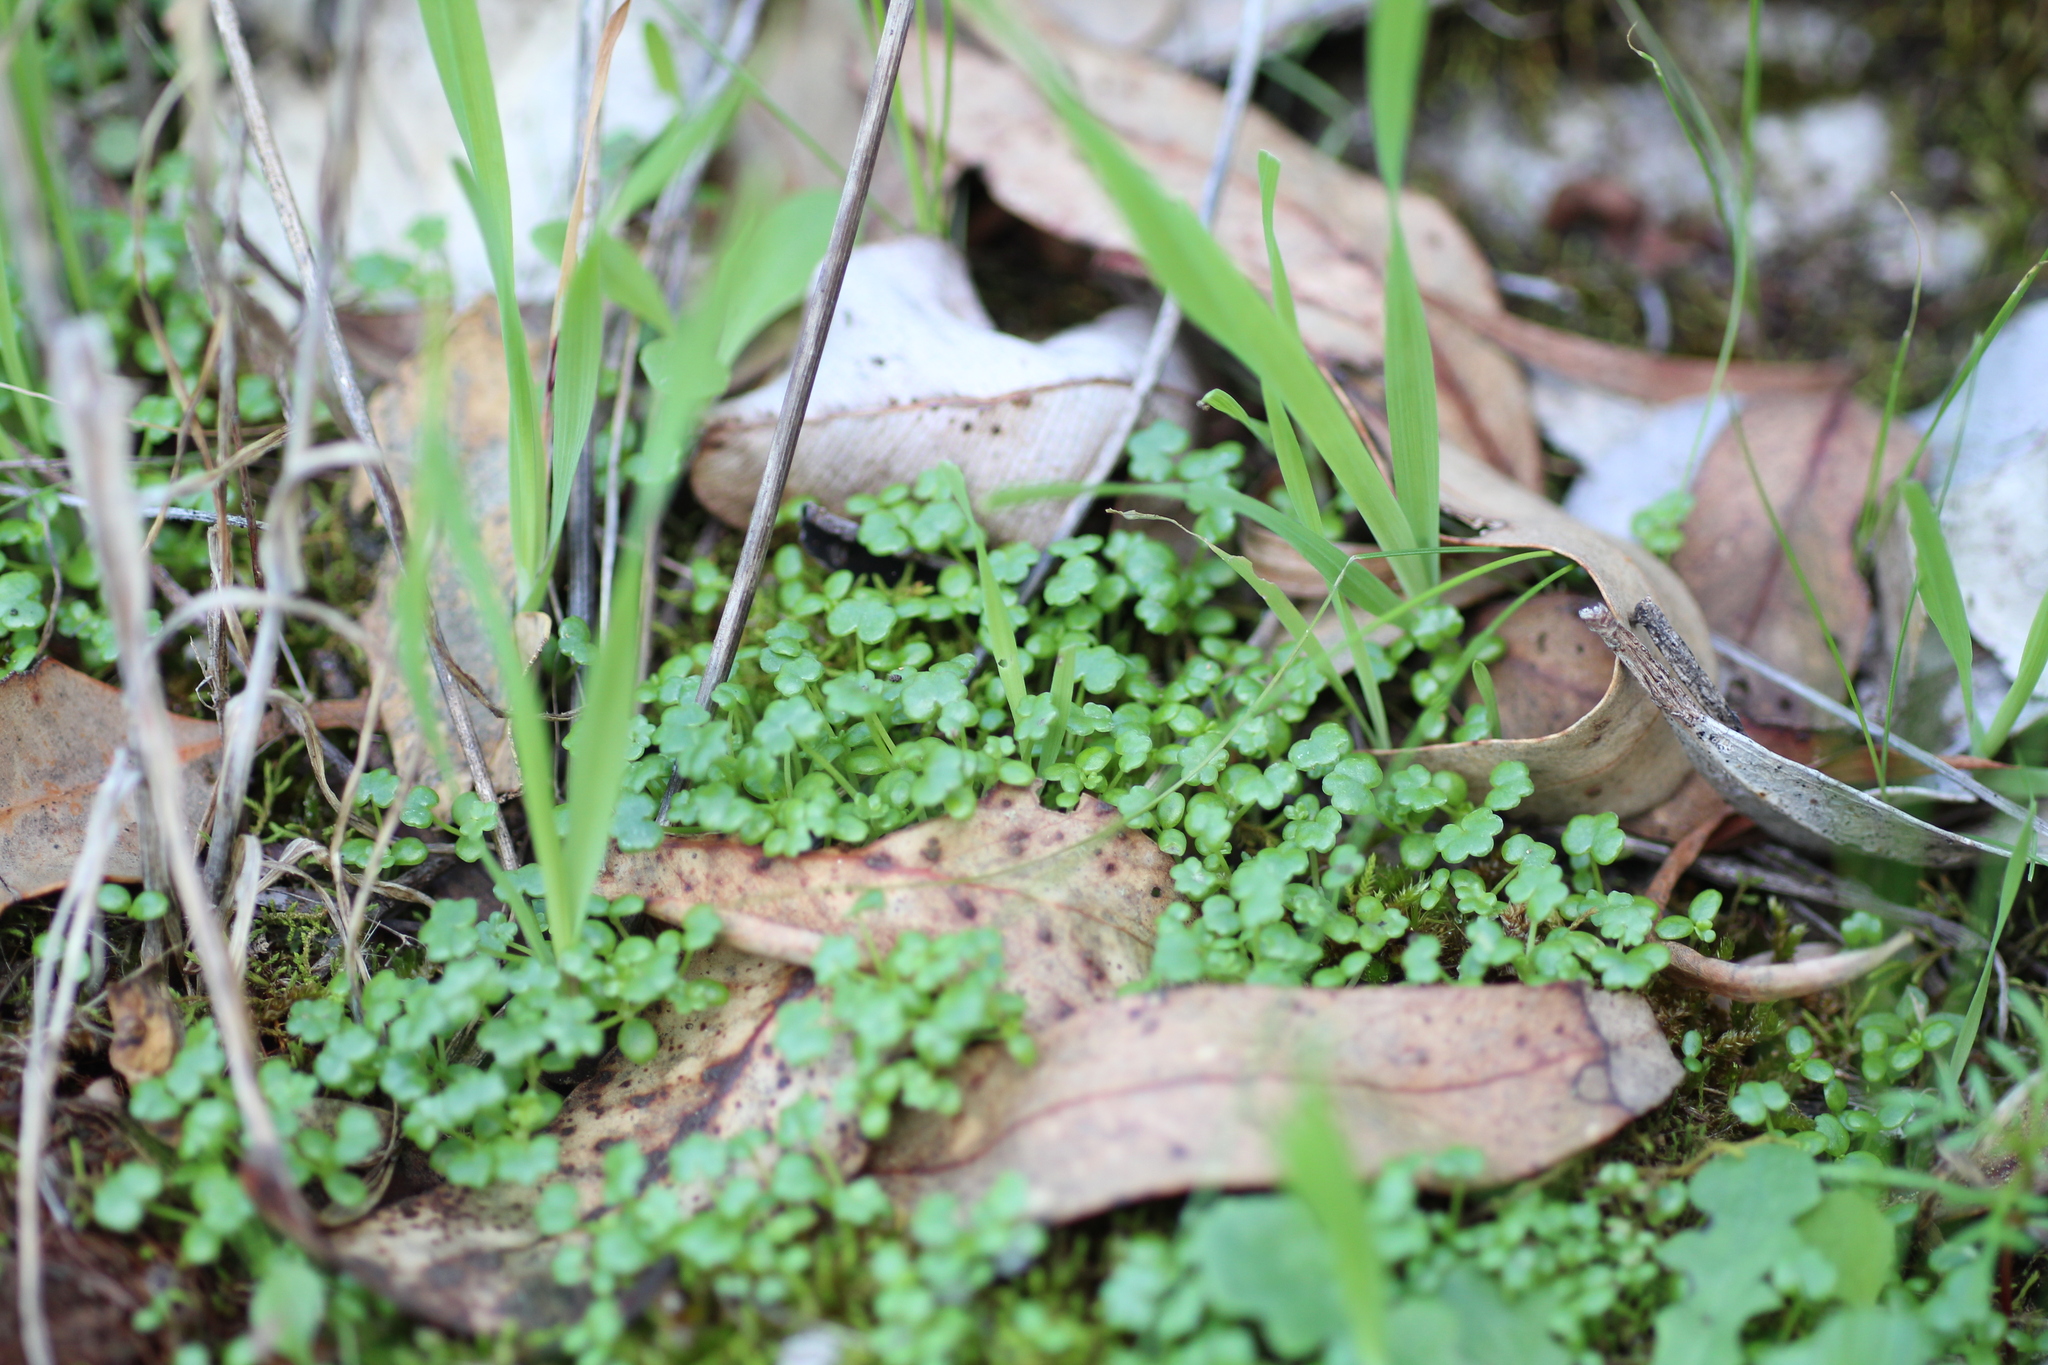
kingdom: Plantae
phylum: Tracheophyta
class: Magnoliopsida
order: Apiales
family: Araliaceae
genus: Hydrocotyle
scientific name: Hydrocotyle diantha
